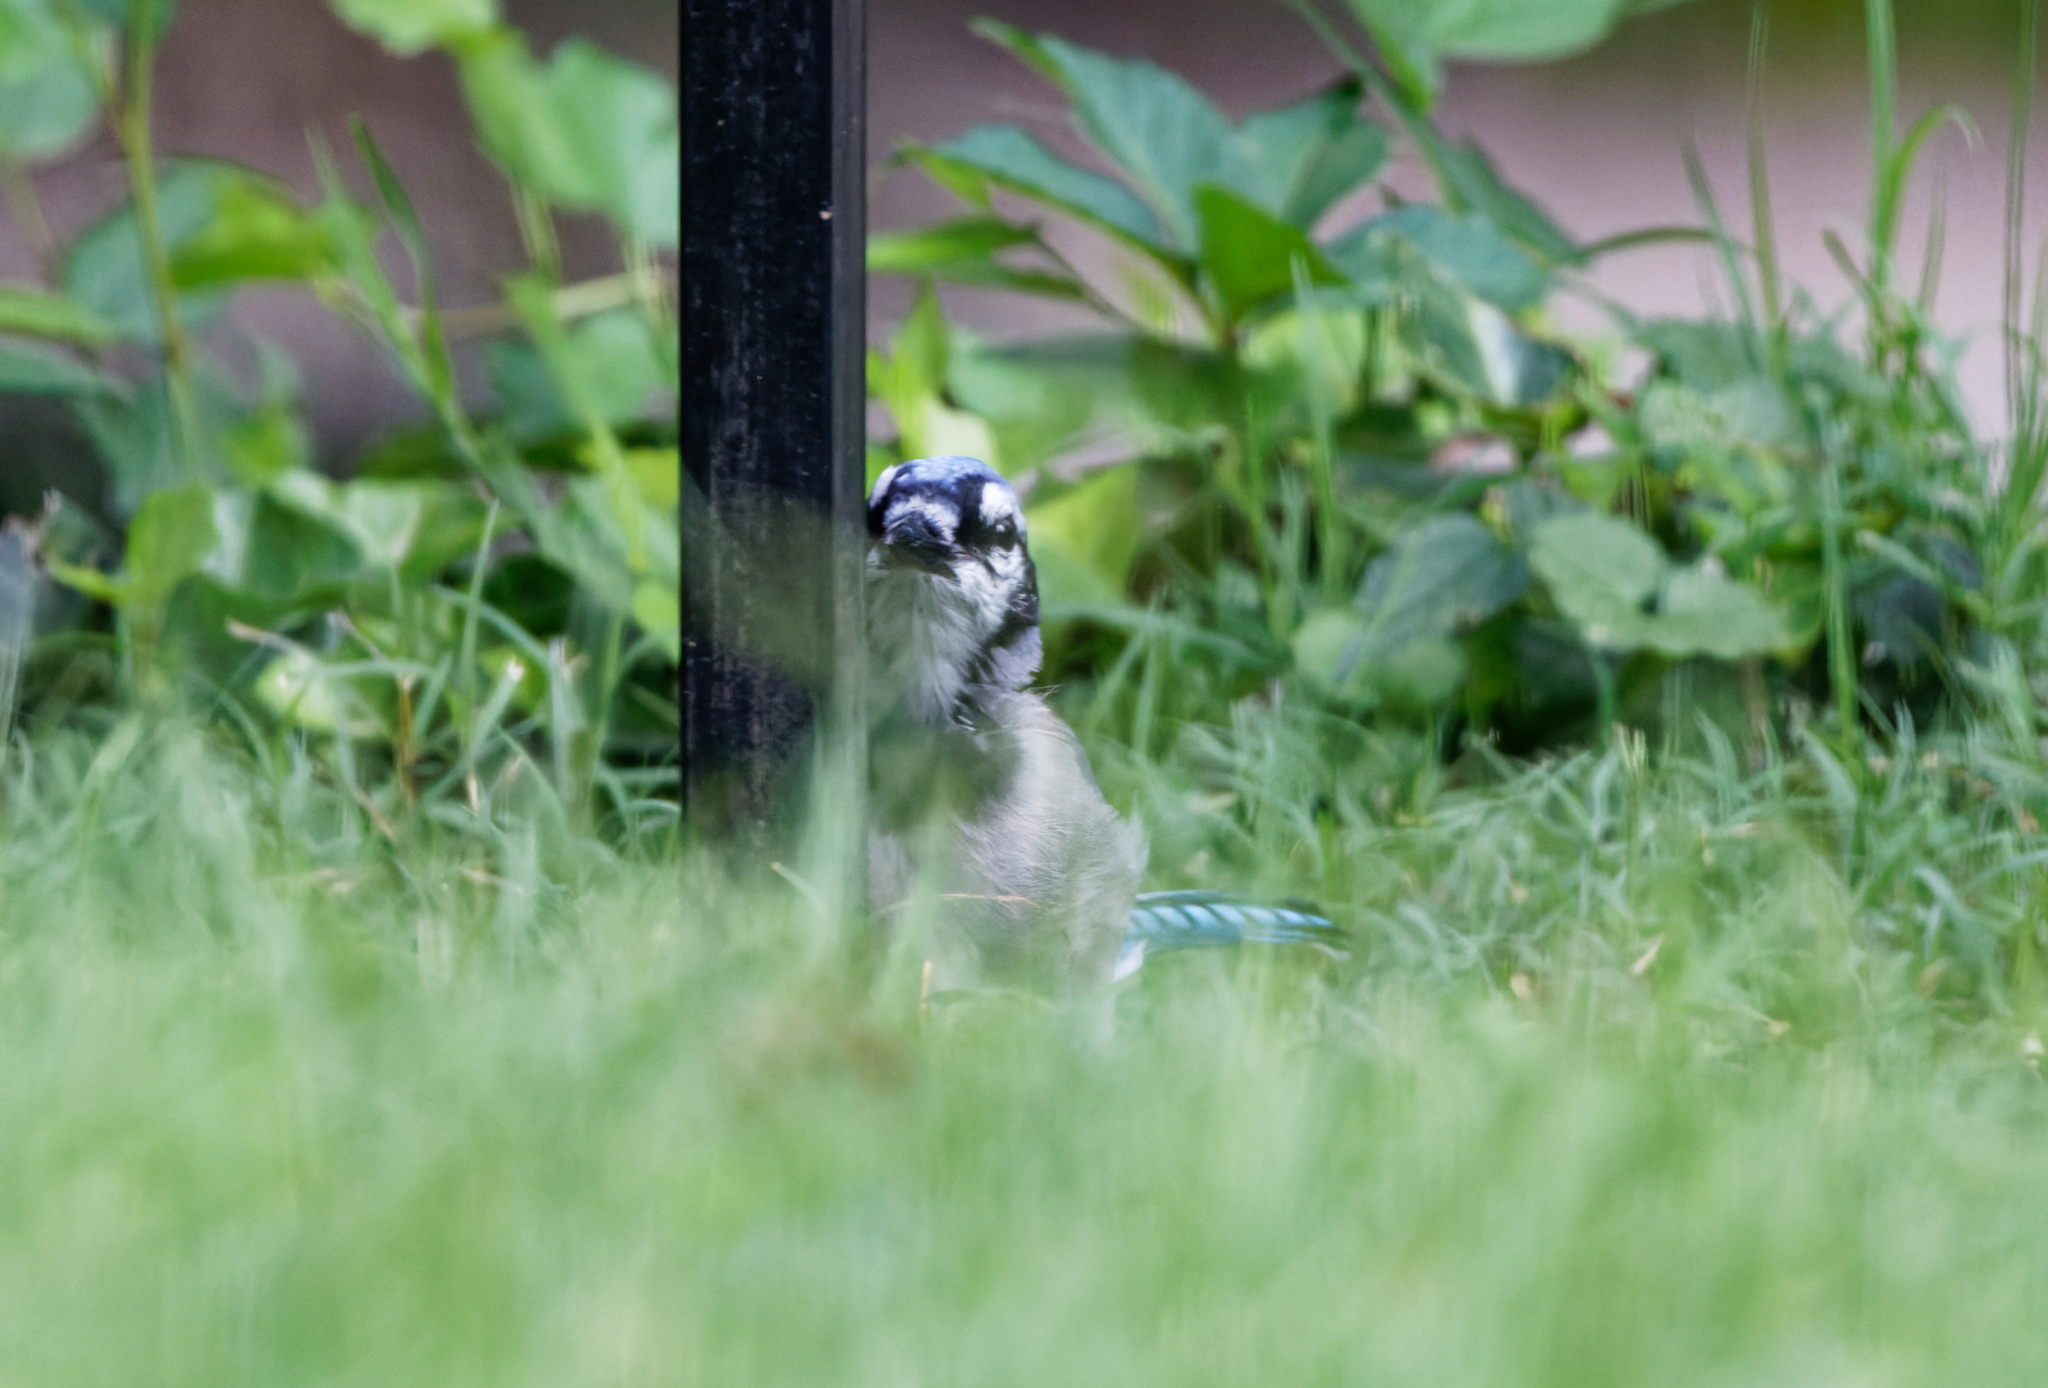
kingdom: Animalia
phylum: Chordata
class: Aves
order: Passeriformes
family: Corvidae
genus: Cyanocitta
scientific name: Cyanocitta cristata
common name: Blue jay
